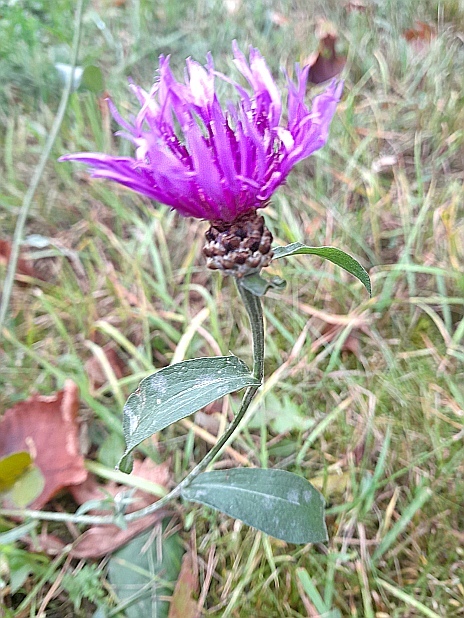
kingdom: Plantae
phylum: Tracheophyta
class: Magnoliopsida
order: Asterales
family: Asteraceae
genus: Centaurea
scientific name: Centaurea jacea
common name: Brown knapweed
